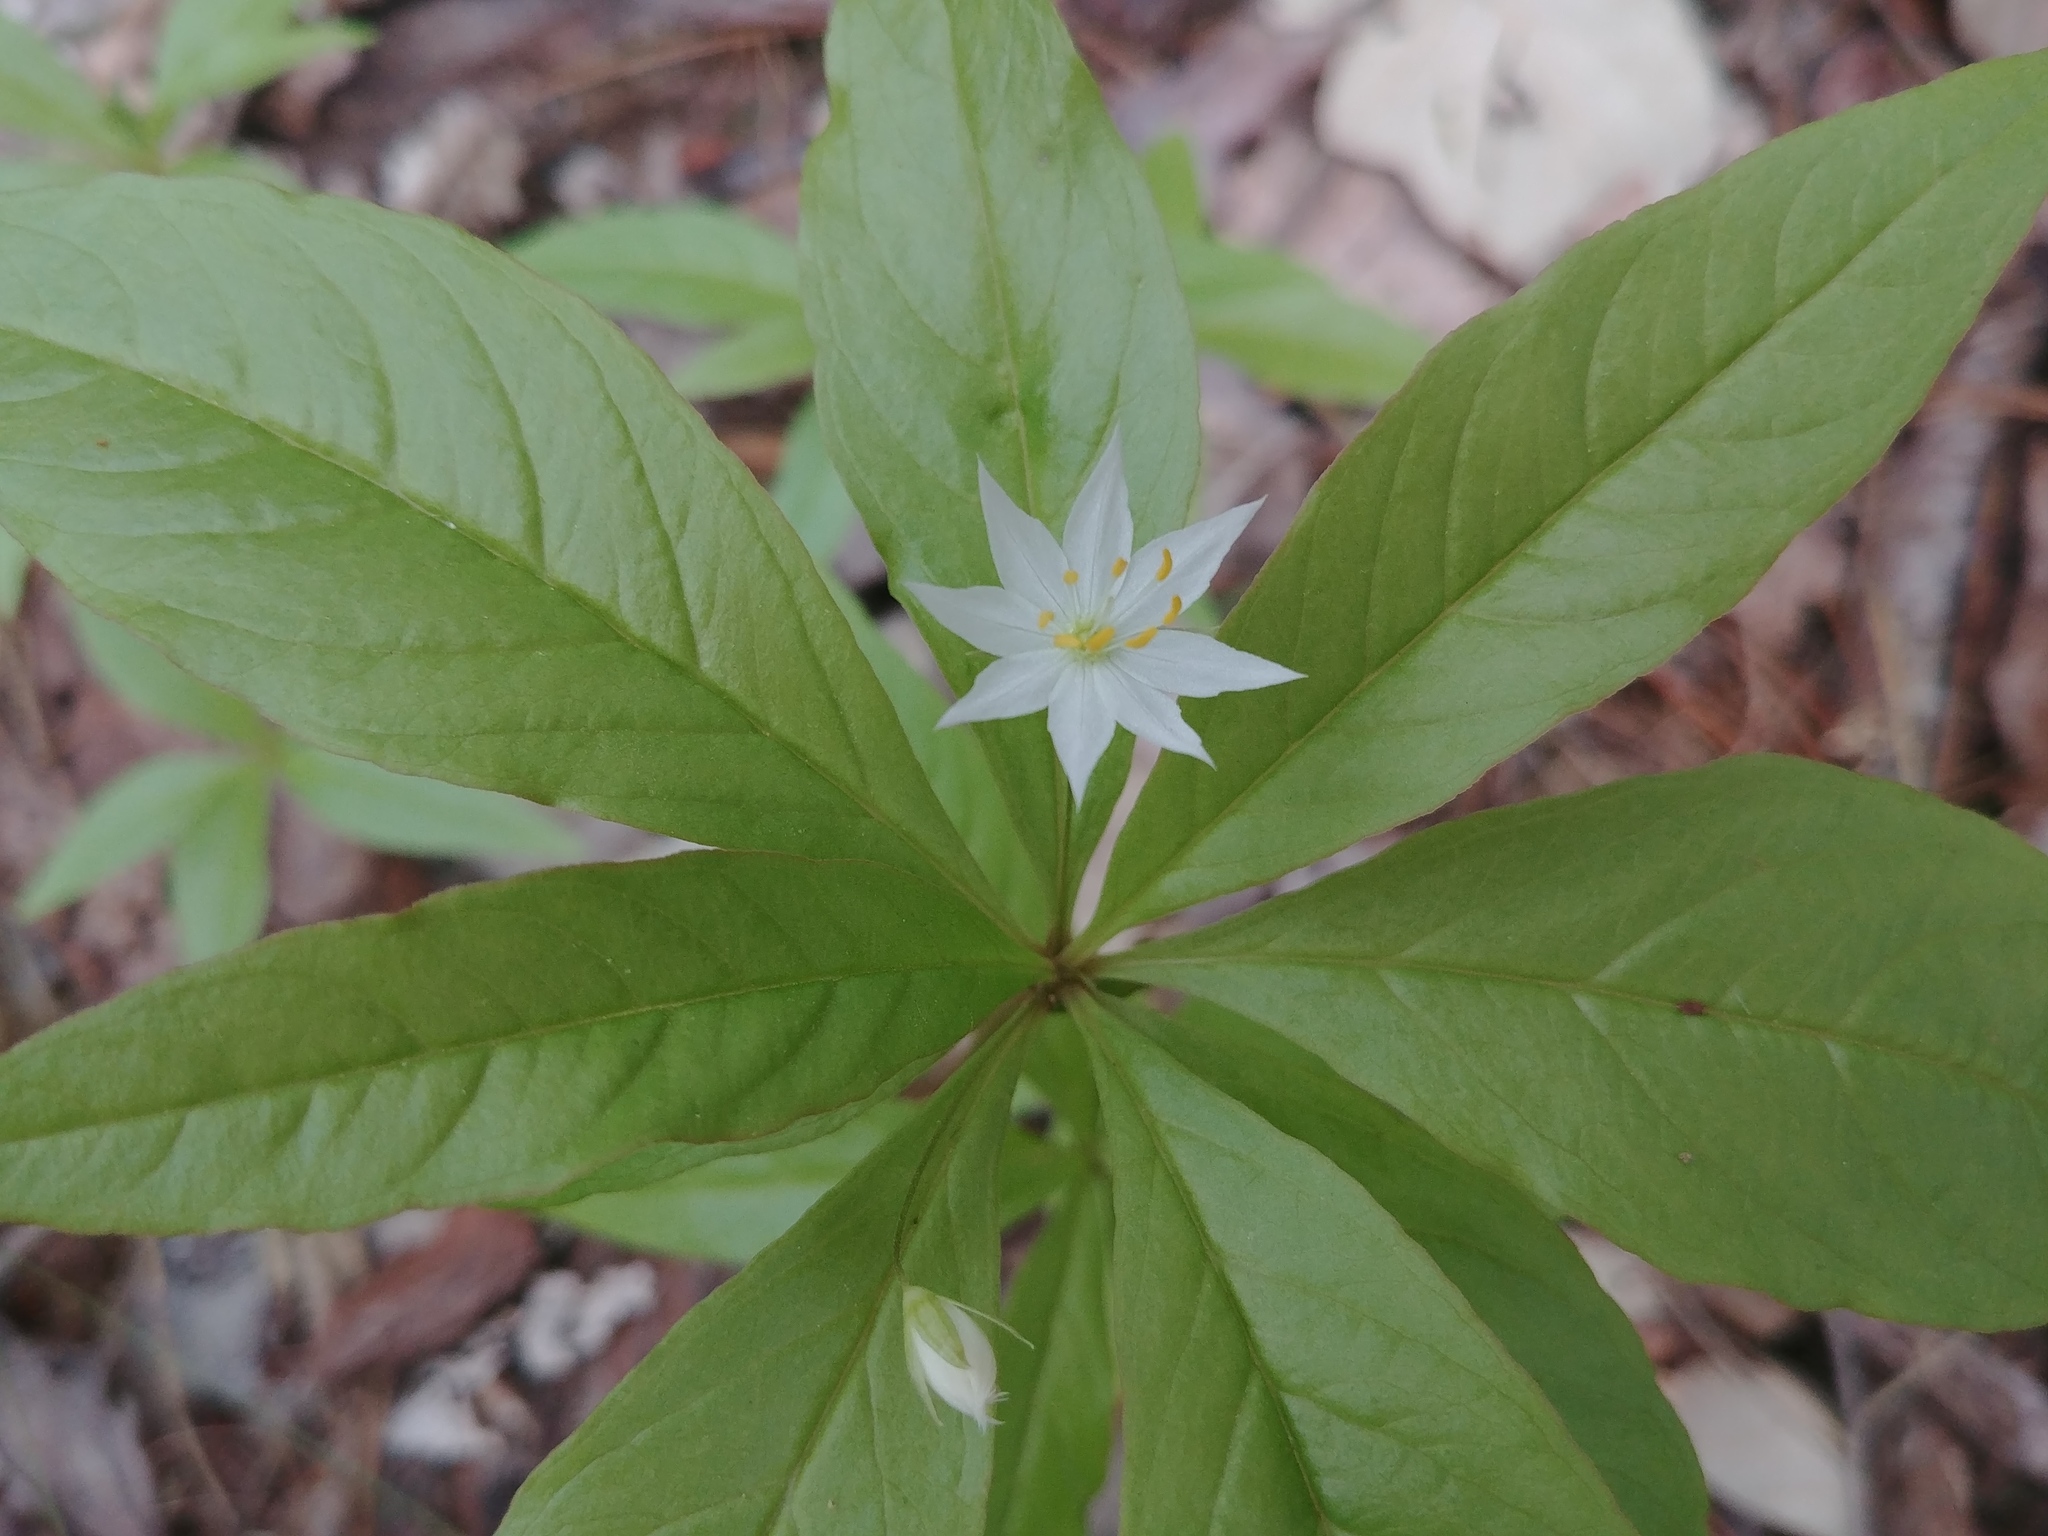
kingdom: Plantae
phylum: Tracheophyta
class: Magnoliopsida
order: Ericales
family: Primulaceae
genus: Lysimachia
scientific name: Lysimachia borealis
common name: American starflower
